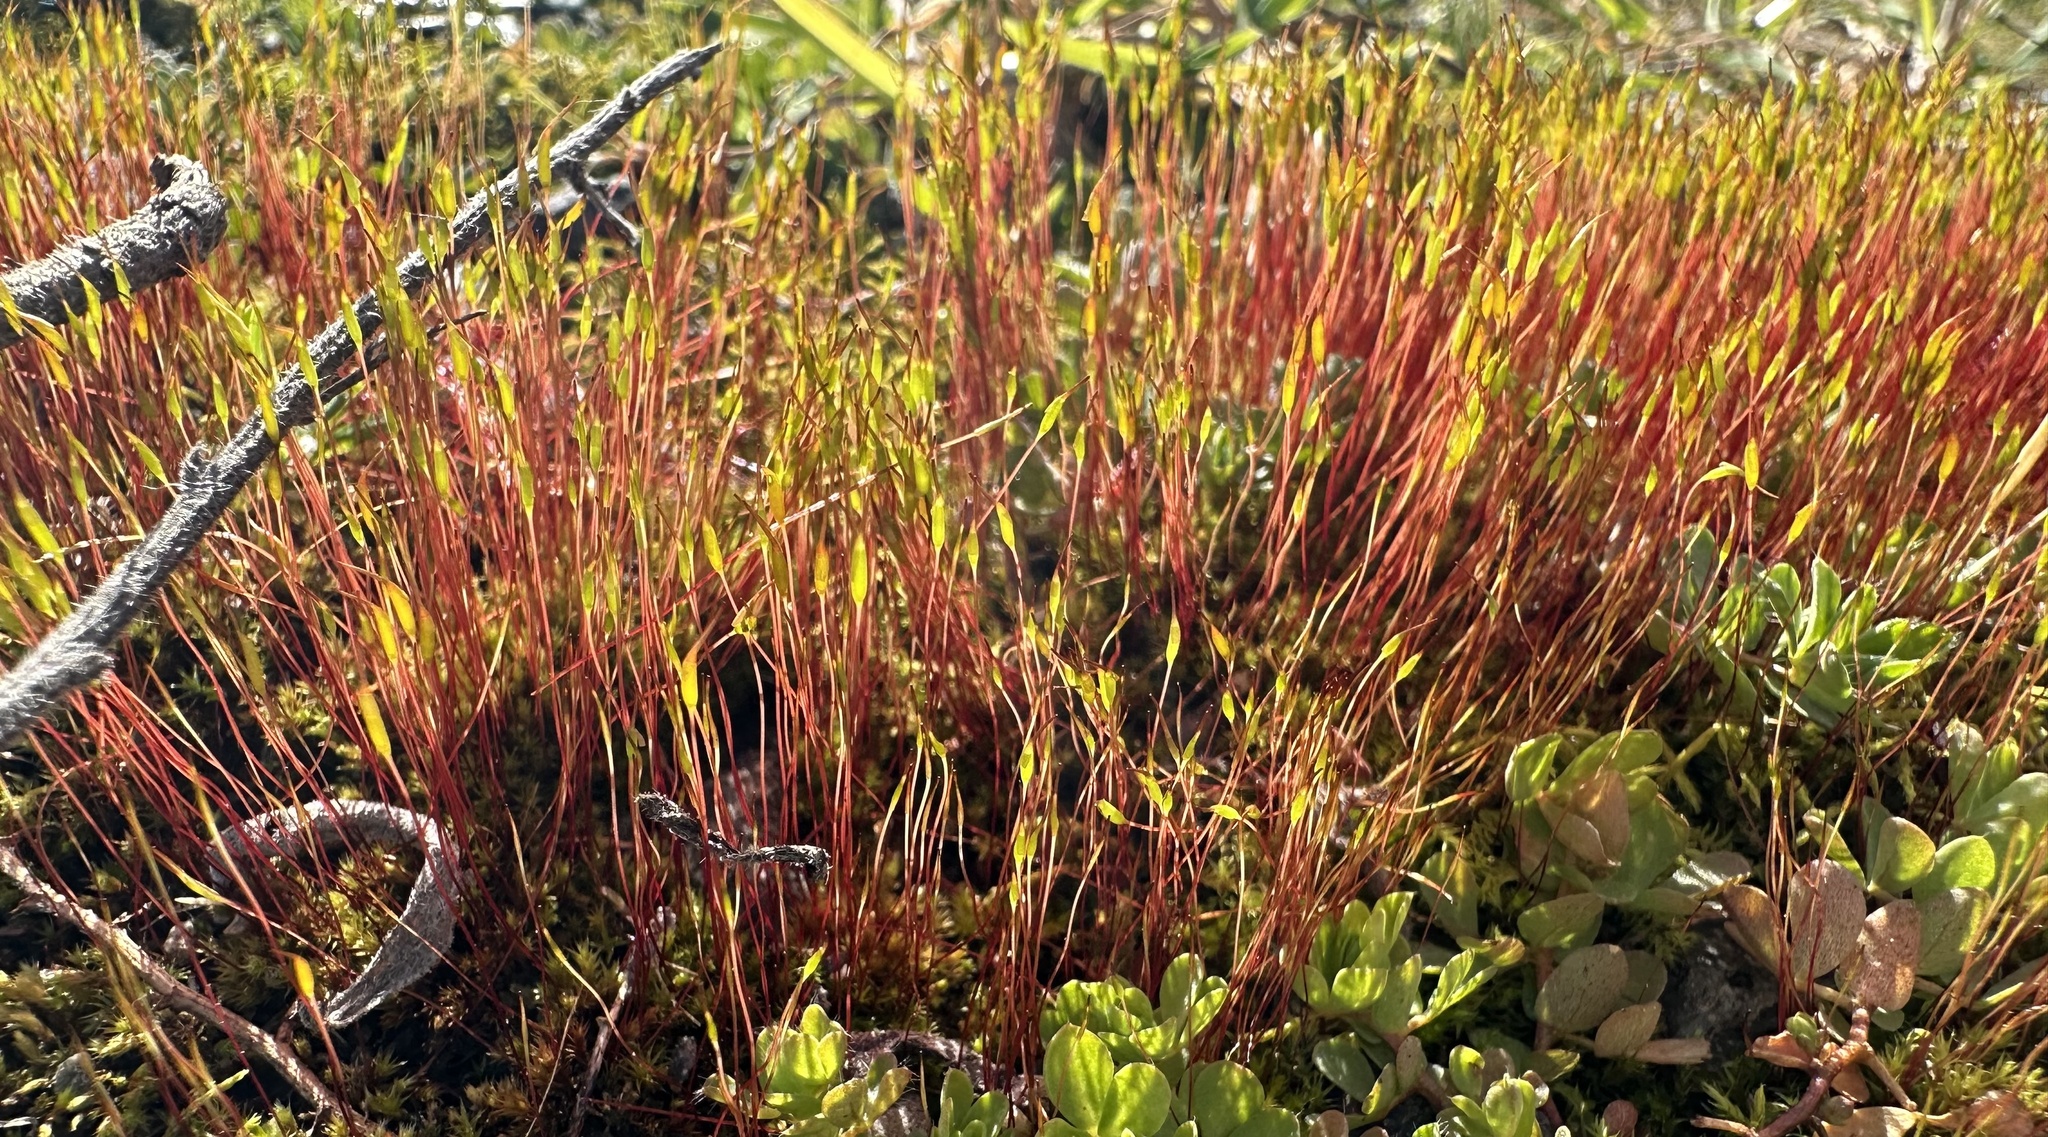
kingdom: Plantae
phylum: Bryophyta
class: Bryopsida
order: Dicranales
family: Ditrichaceae
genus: Ceratodon
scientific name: Ceratodon purpureus
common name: Redshank
